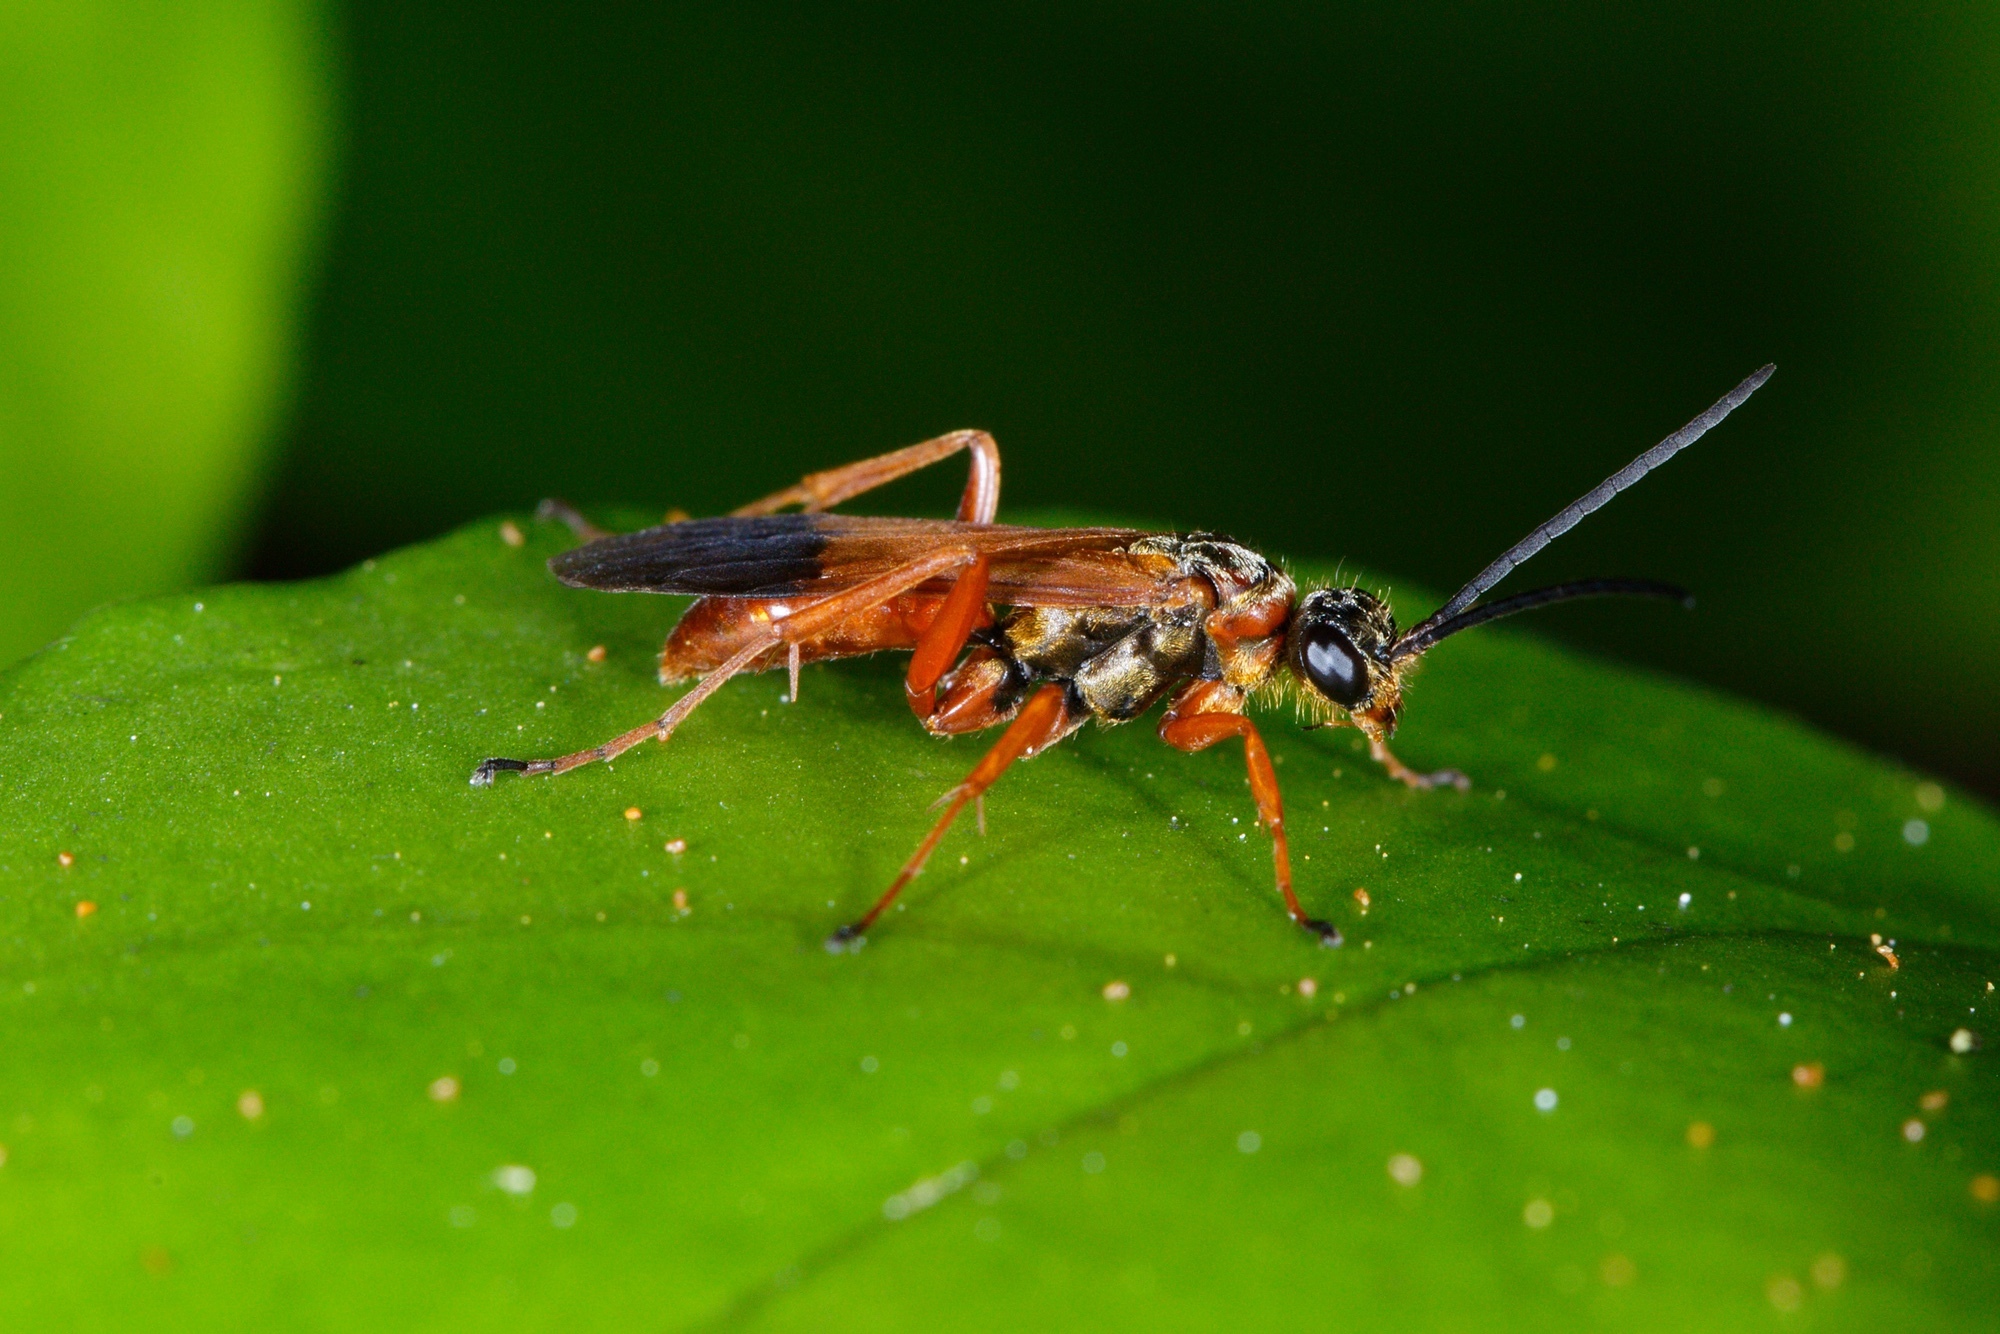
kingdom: Animalia
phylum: Arthropoda
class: Insecta
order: Hymenoptera
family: Pompilidae
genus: Priocnemis
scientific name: Priocnemis conformis
